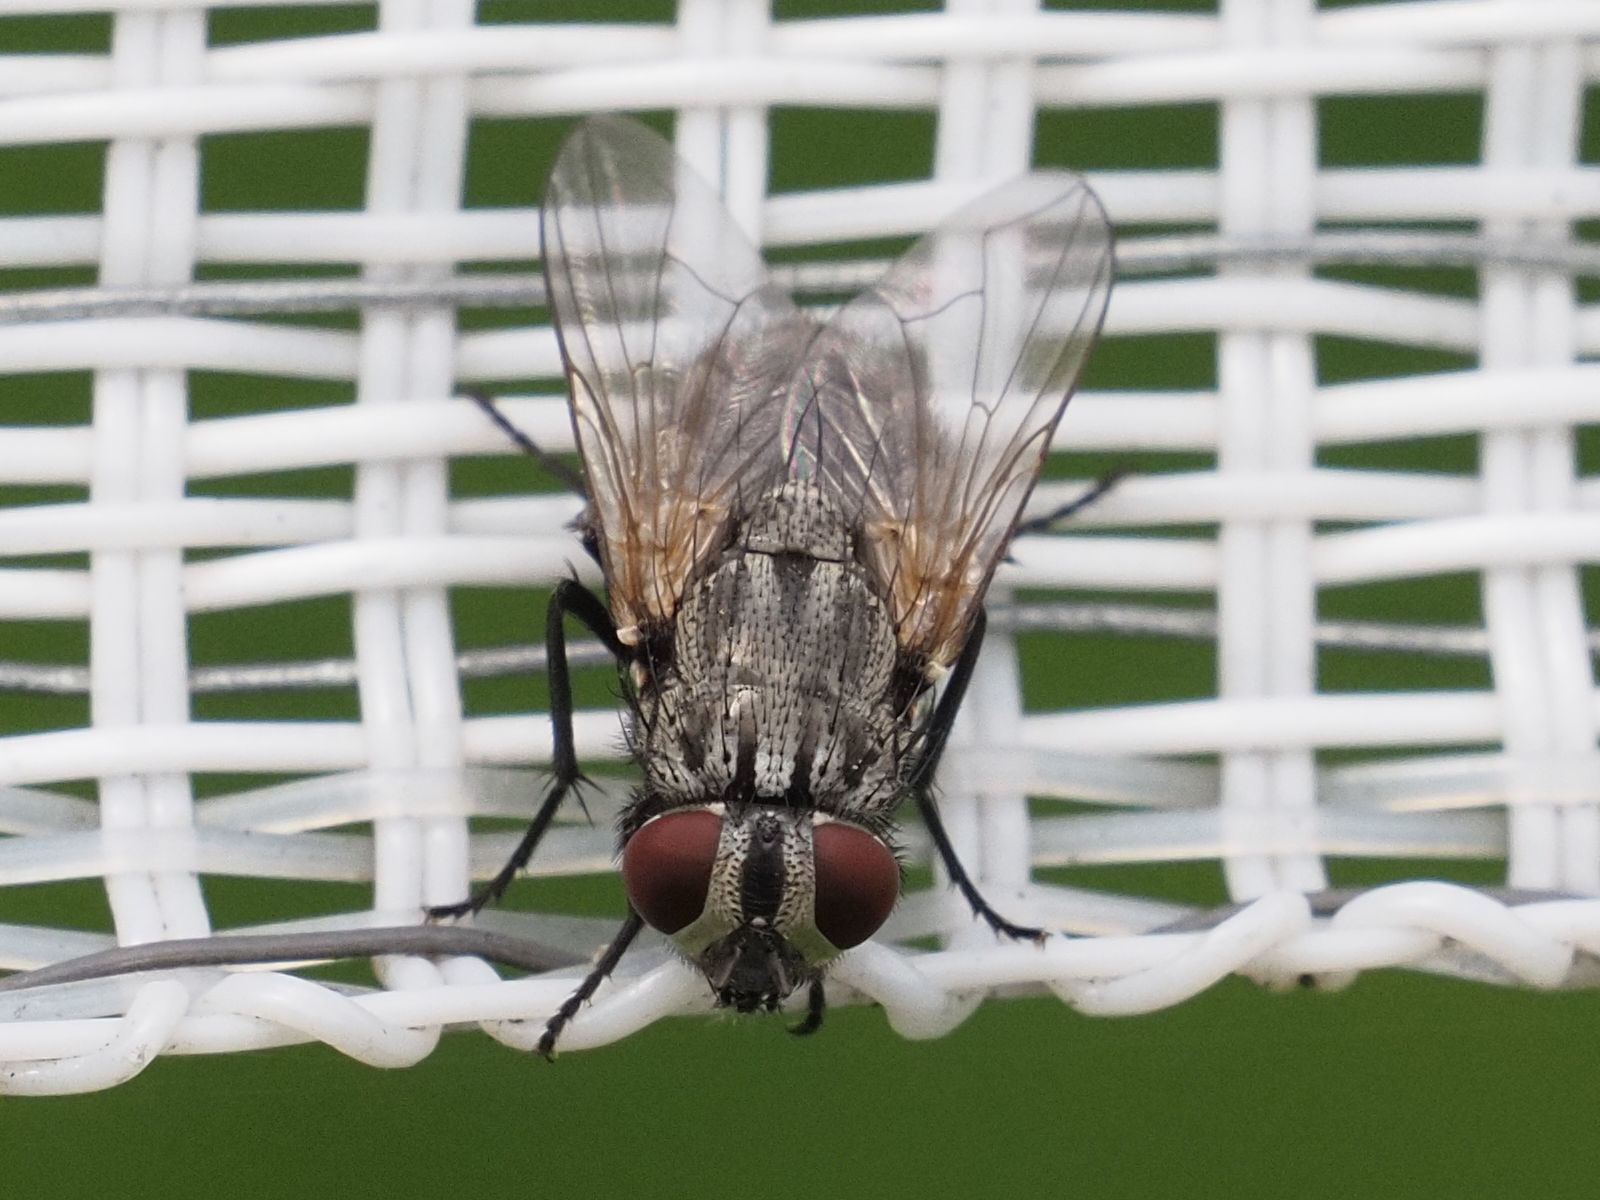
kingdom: Animalia
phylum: Arthropoda
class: Insecta
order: Diptera
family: Muscidae
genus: Musca
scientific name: Musca autumnalis
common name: Face fly
